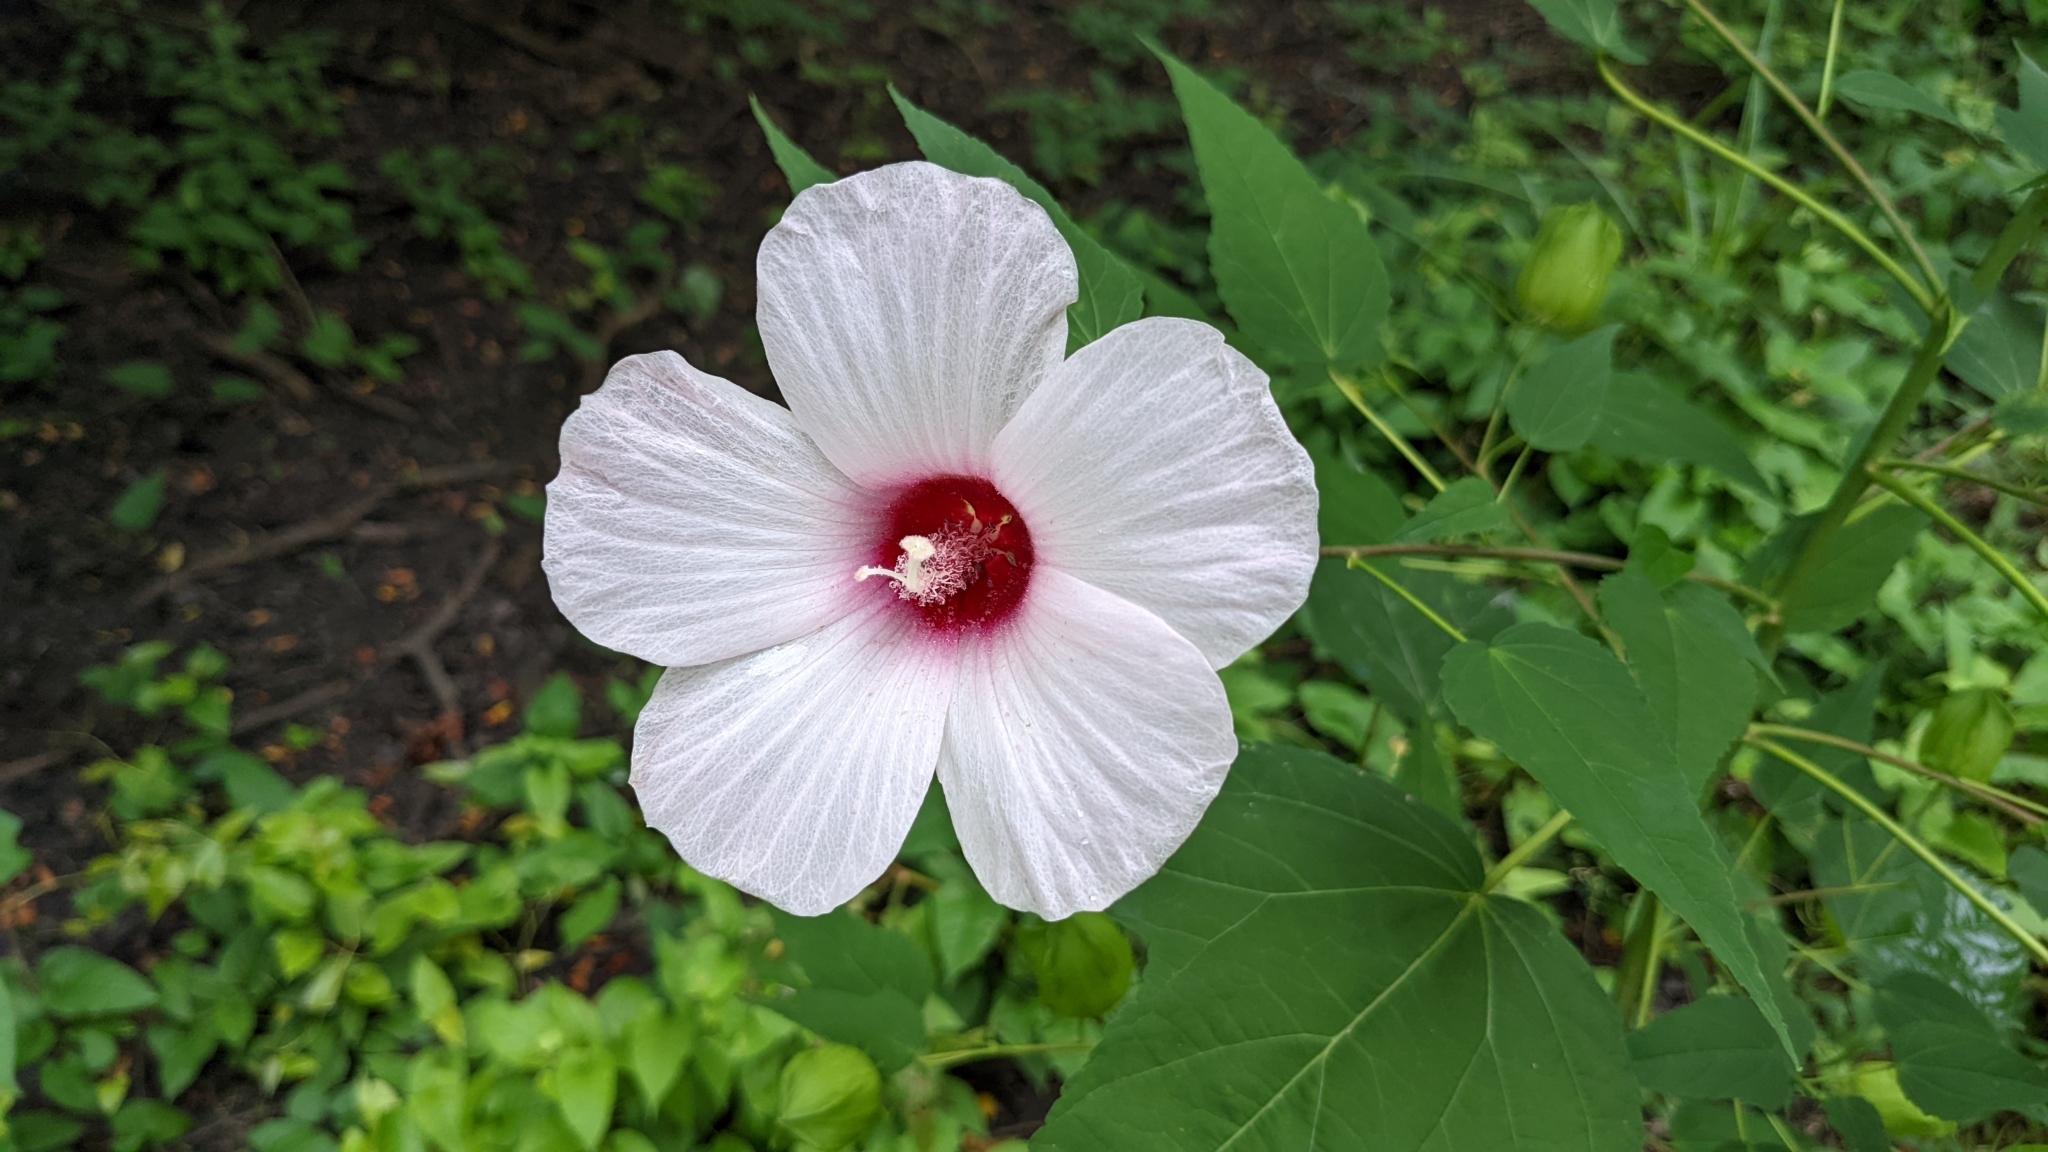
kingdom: Plantae
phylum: Tracheophyta
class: Magnoliopsida
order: Malvales
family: Malvaceae
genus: Hibiscus
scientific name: Hibiscus laevis
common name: Scarlet rose-mallow
